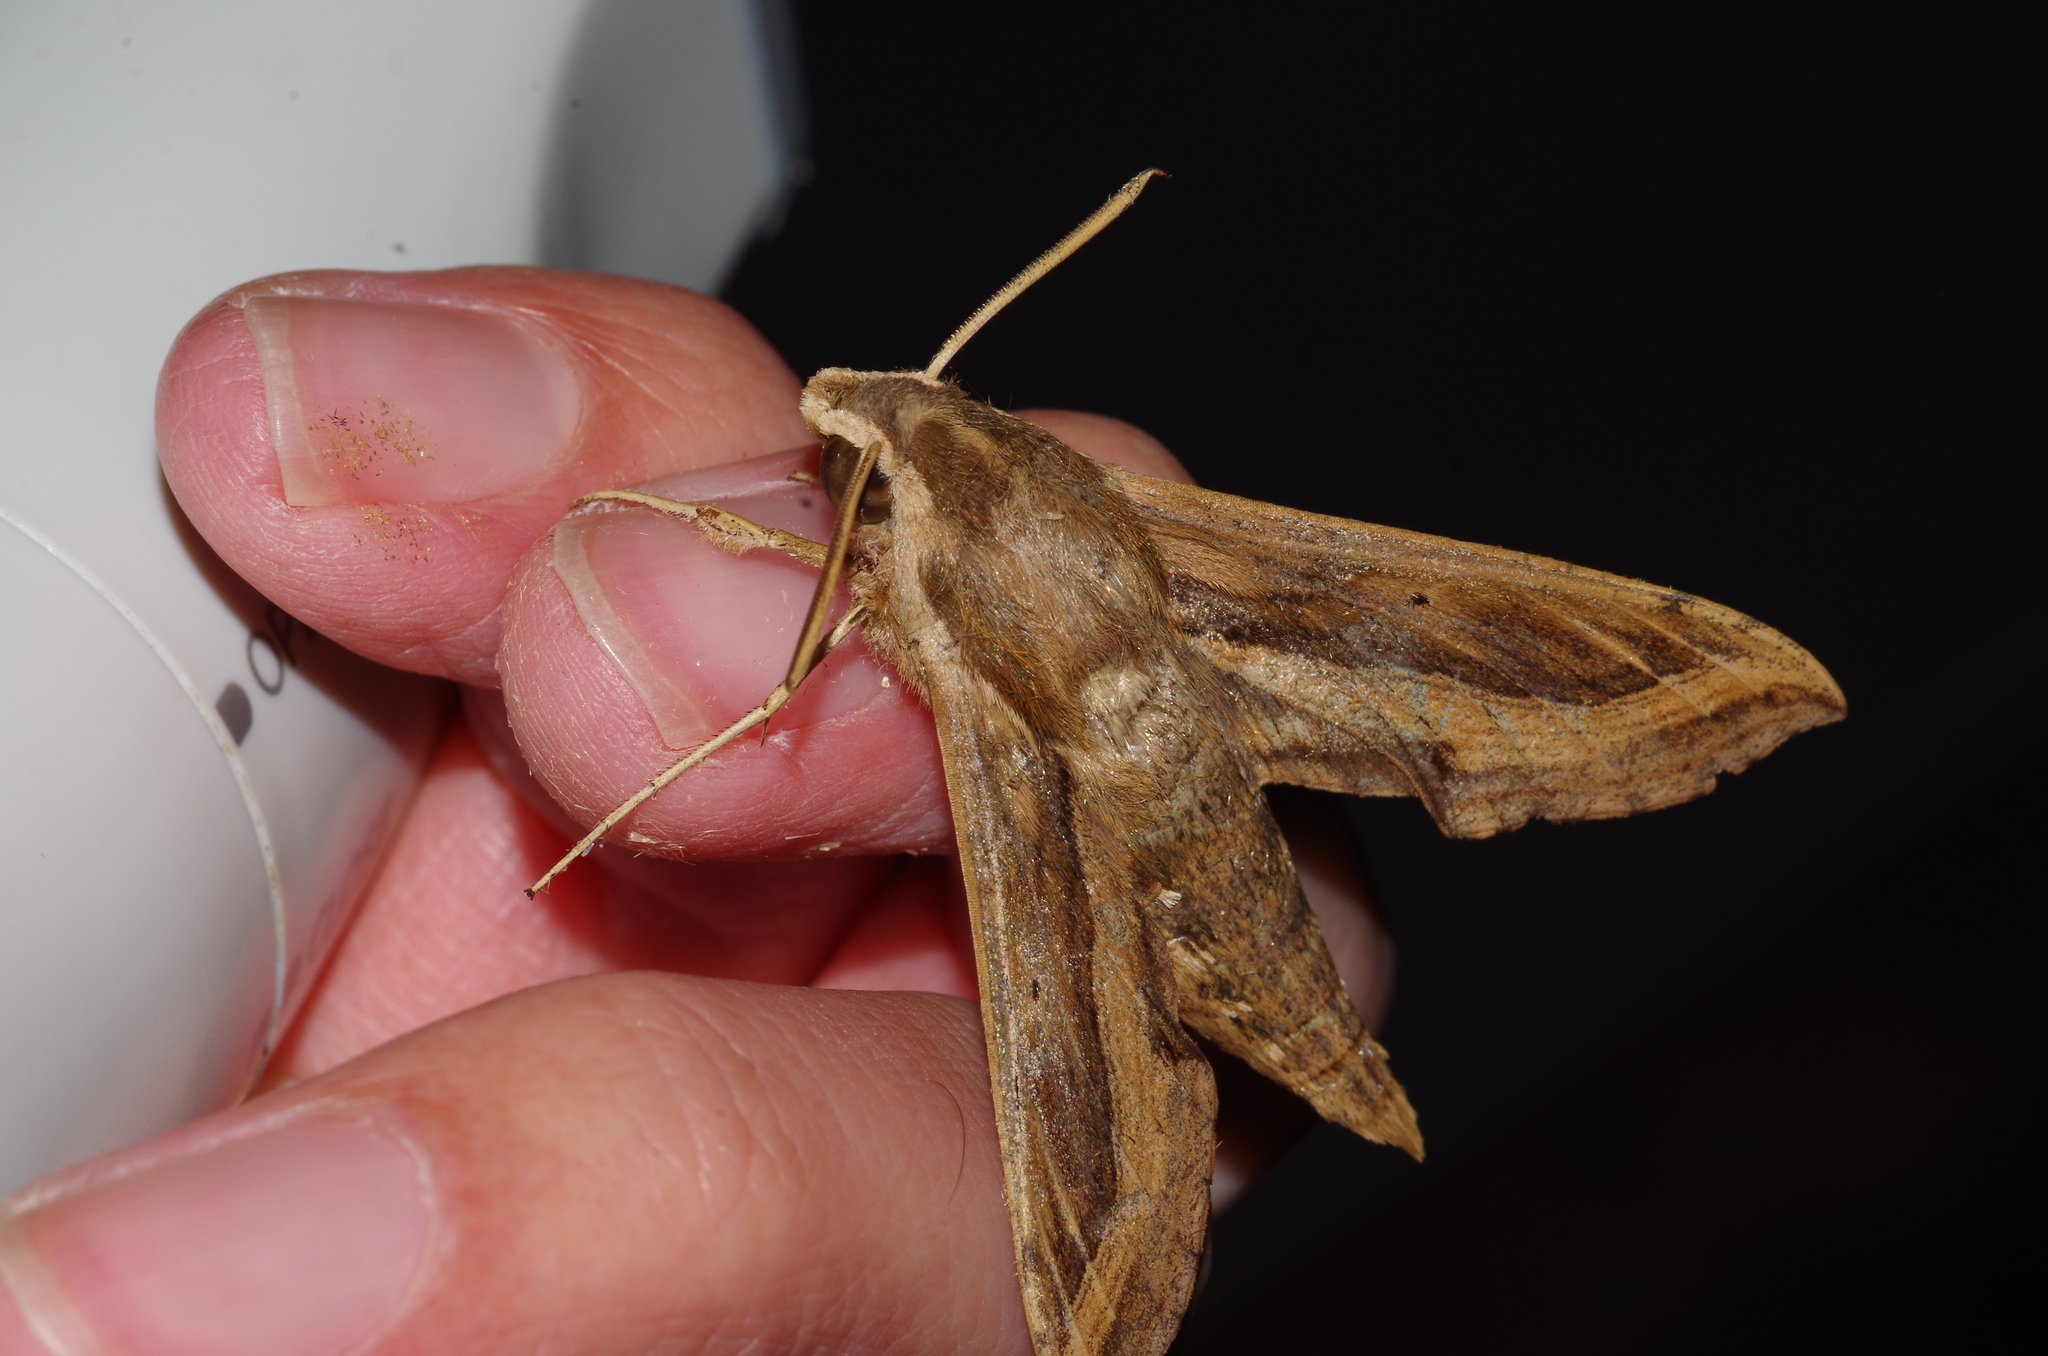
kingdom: Animalia
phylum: Arthropoda
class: Insecta
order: Lepidoptera
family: Sphingidae
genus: Hippotion
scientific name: Hippotion velox
